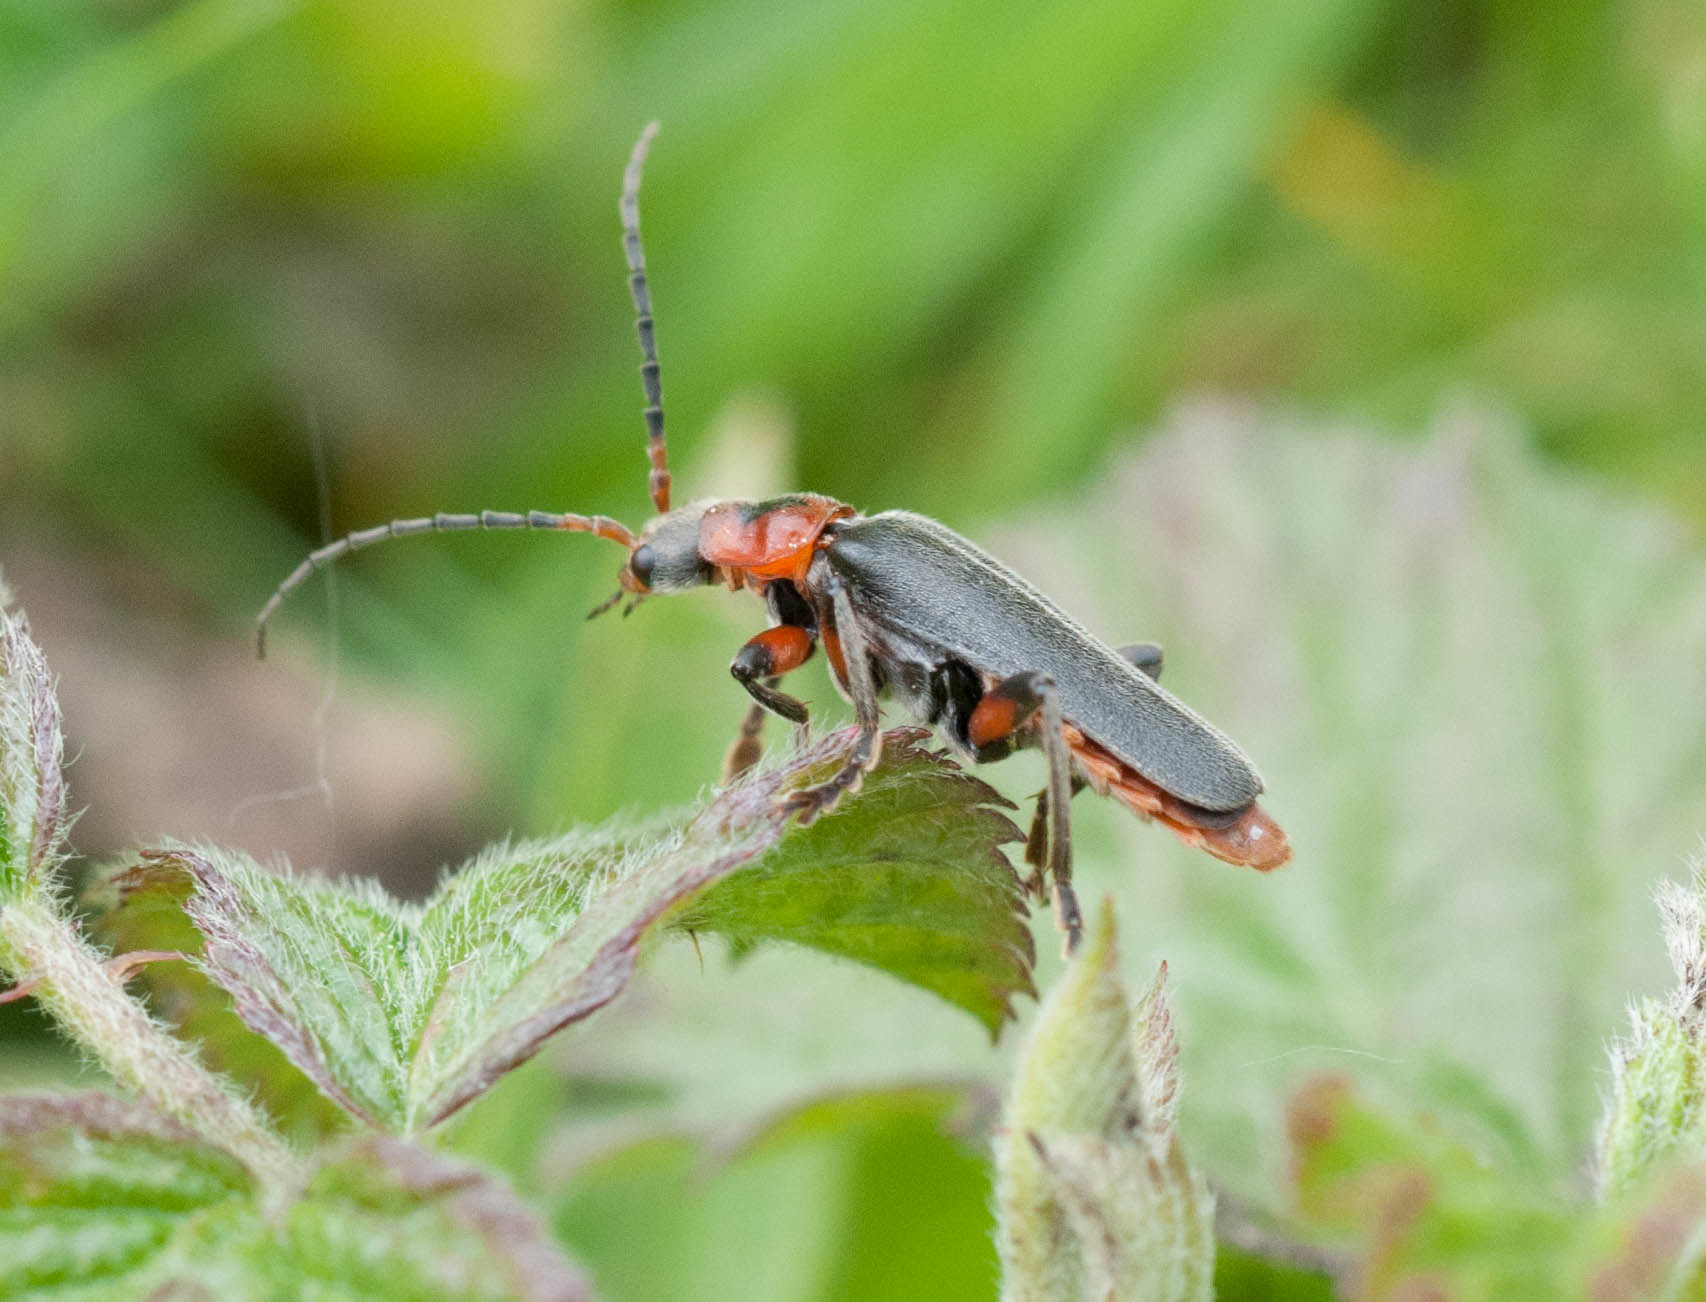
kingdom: Animalia
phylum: Arthropoda
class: Insecta
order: Coleoptera
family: Cantharidae
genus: Cantharis
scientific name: Cantharis rustica
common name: Soldier beetle
